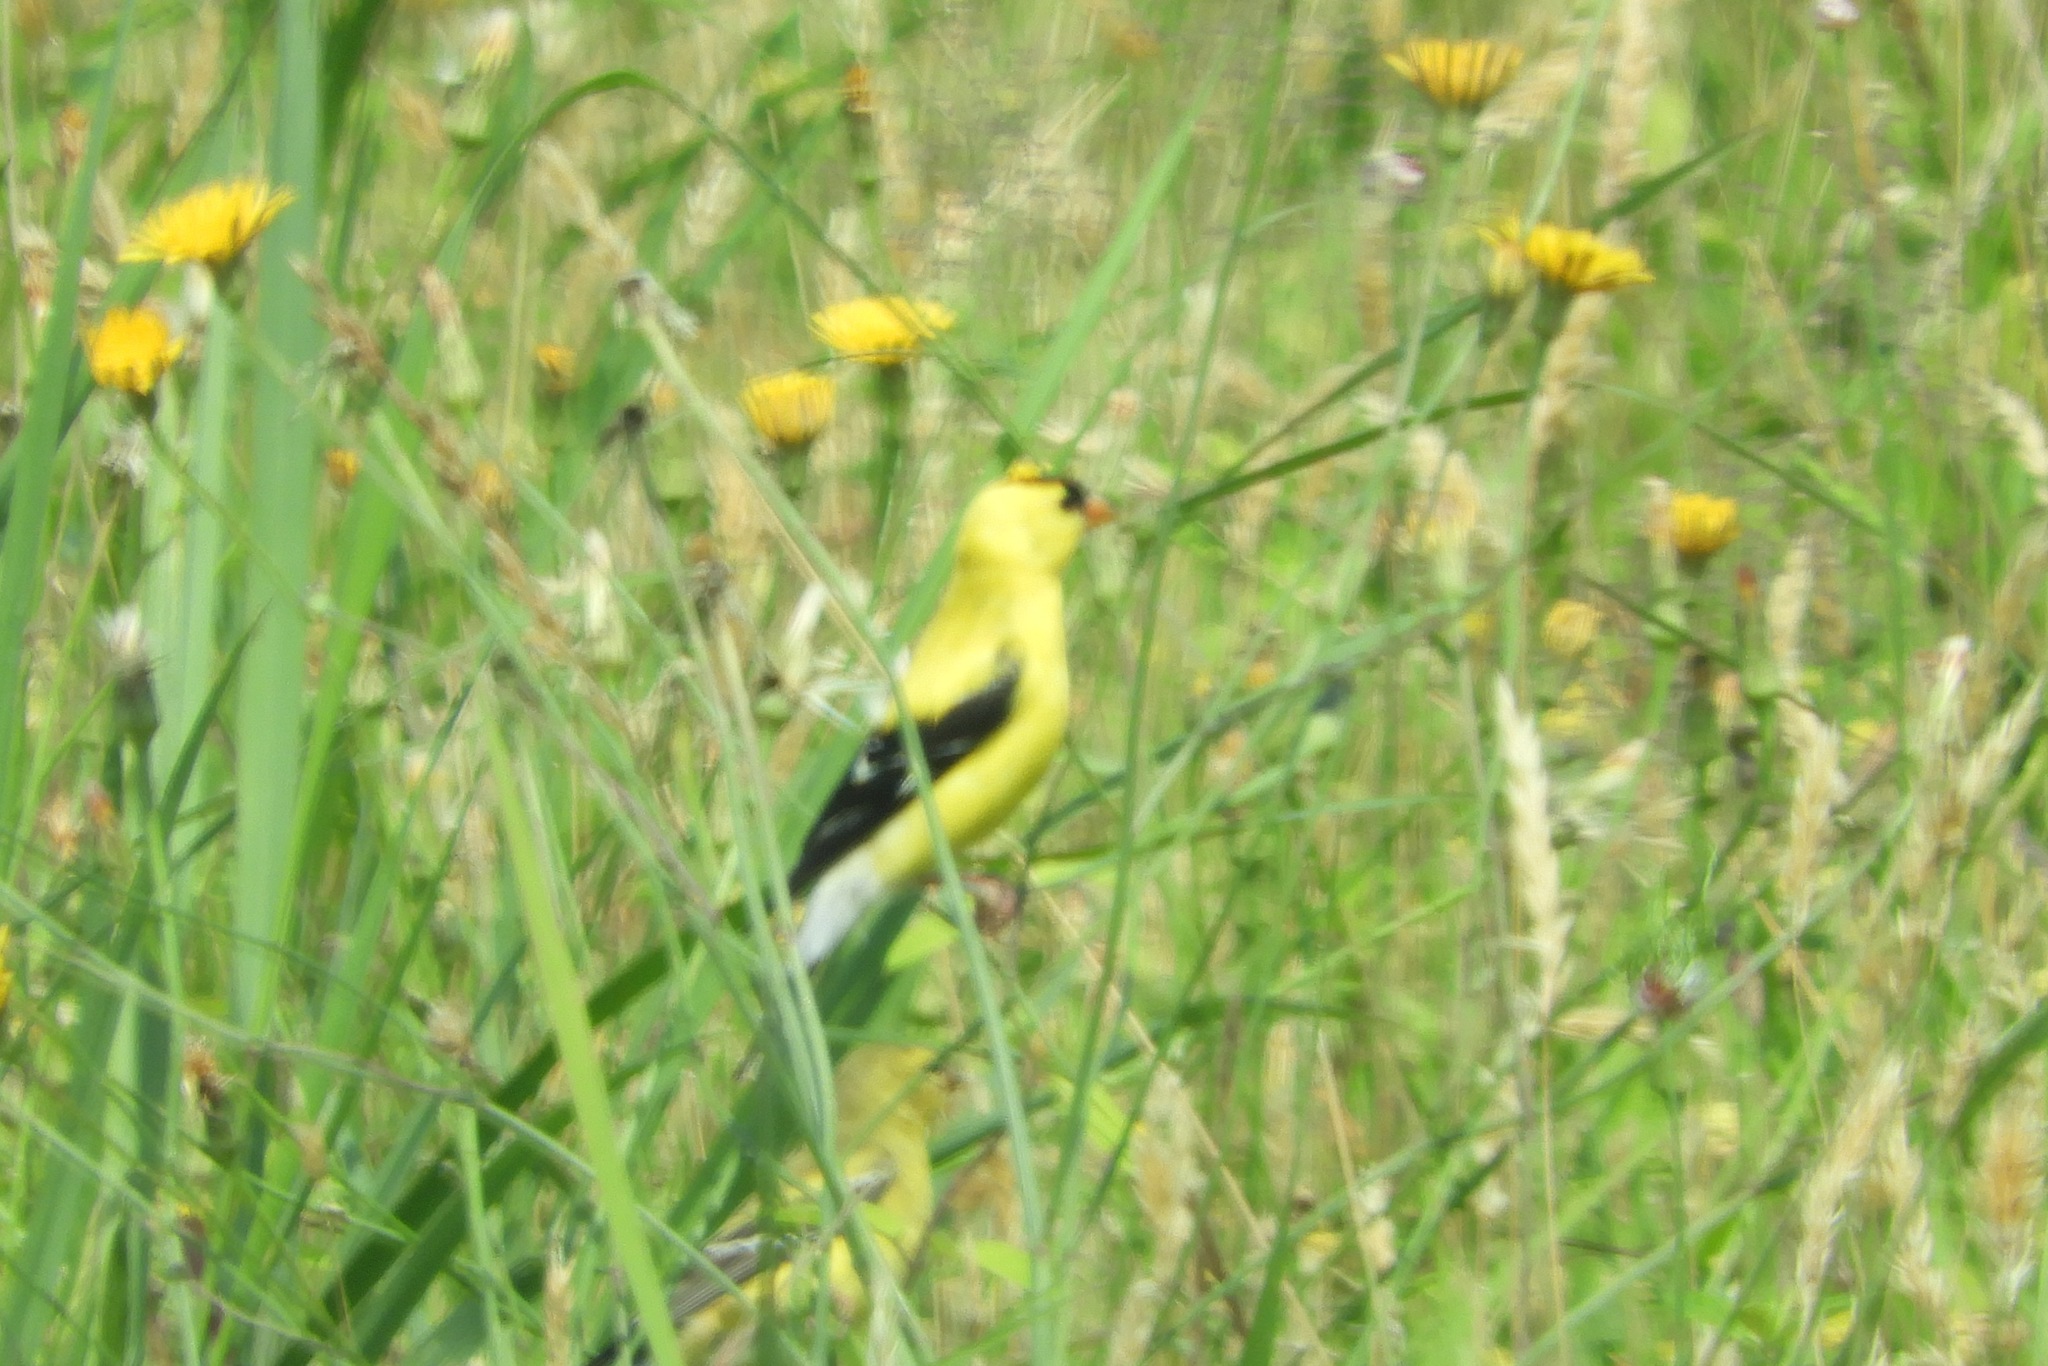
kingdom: Animalia
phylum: Chordata
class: Aves
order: Passeriformes
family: Fringillidae
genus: Spinus
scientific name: Spinus tristis
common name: American goldfinch
